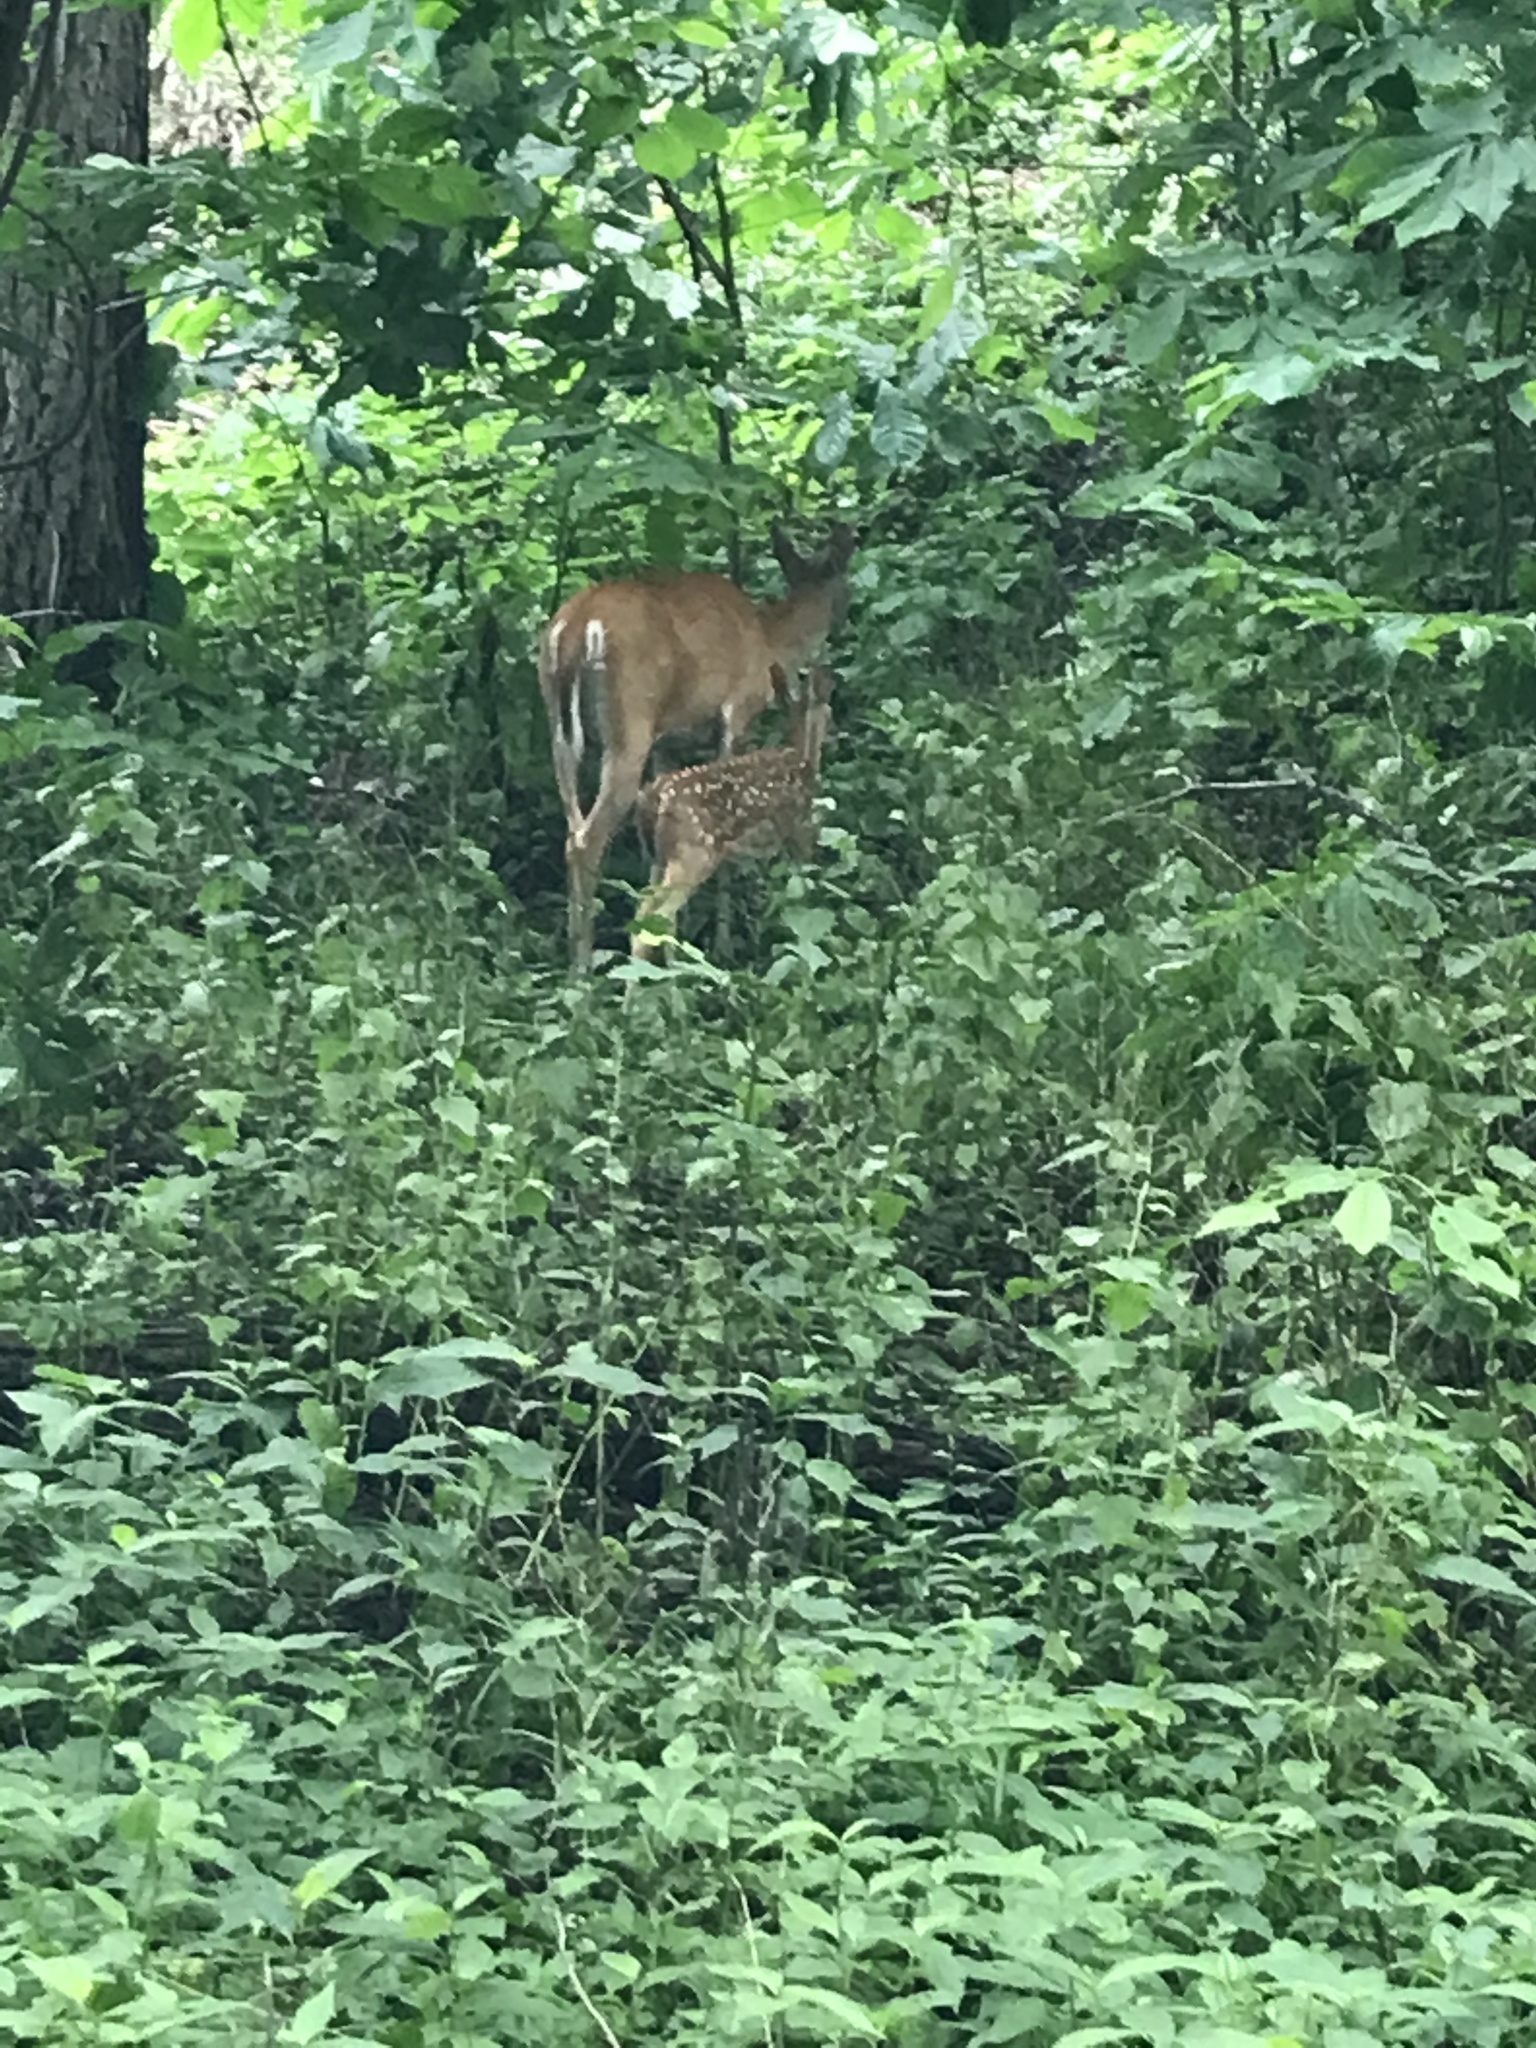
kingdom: Animalia
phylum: Chordata
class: Mammalia
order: Artiodactyla
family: Cervidae
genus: Odocoileus
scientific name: Odocoileus virginianus
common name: White-tailed deer
